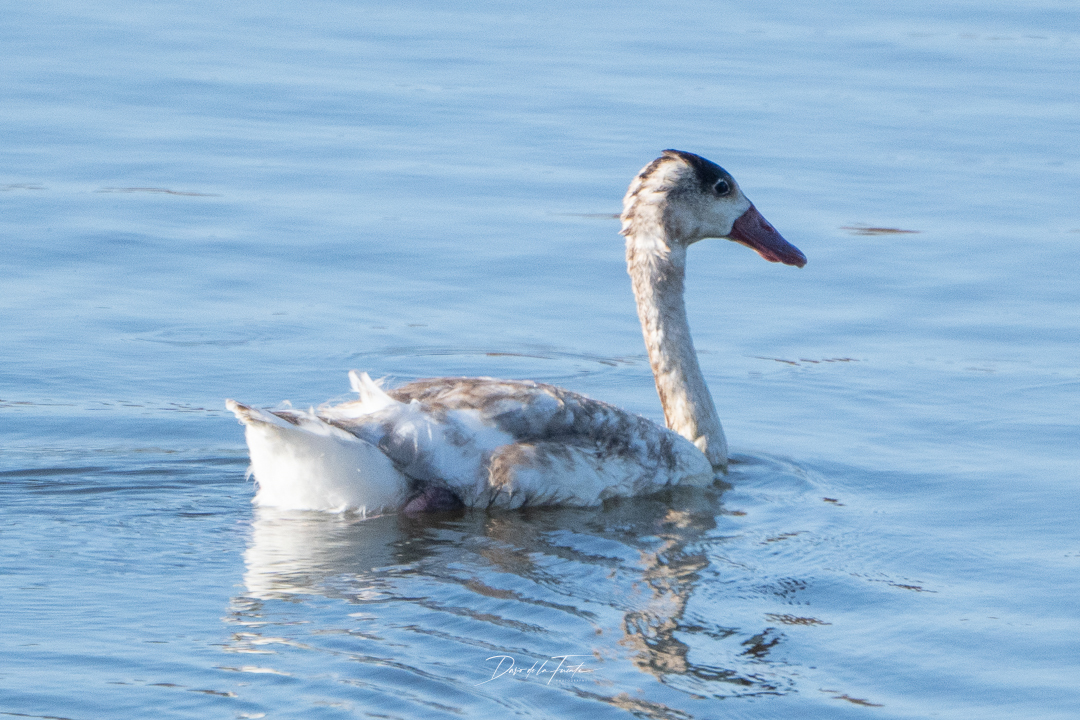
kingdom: Animalia
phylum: Chordata
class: Aves
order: Anseriformes
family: Anatidae
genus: Coscoroba
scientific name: Coscoroba coscoroba
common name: Coscoroba swan
